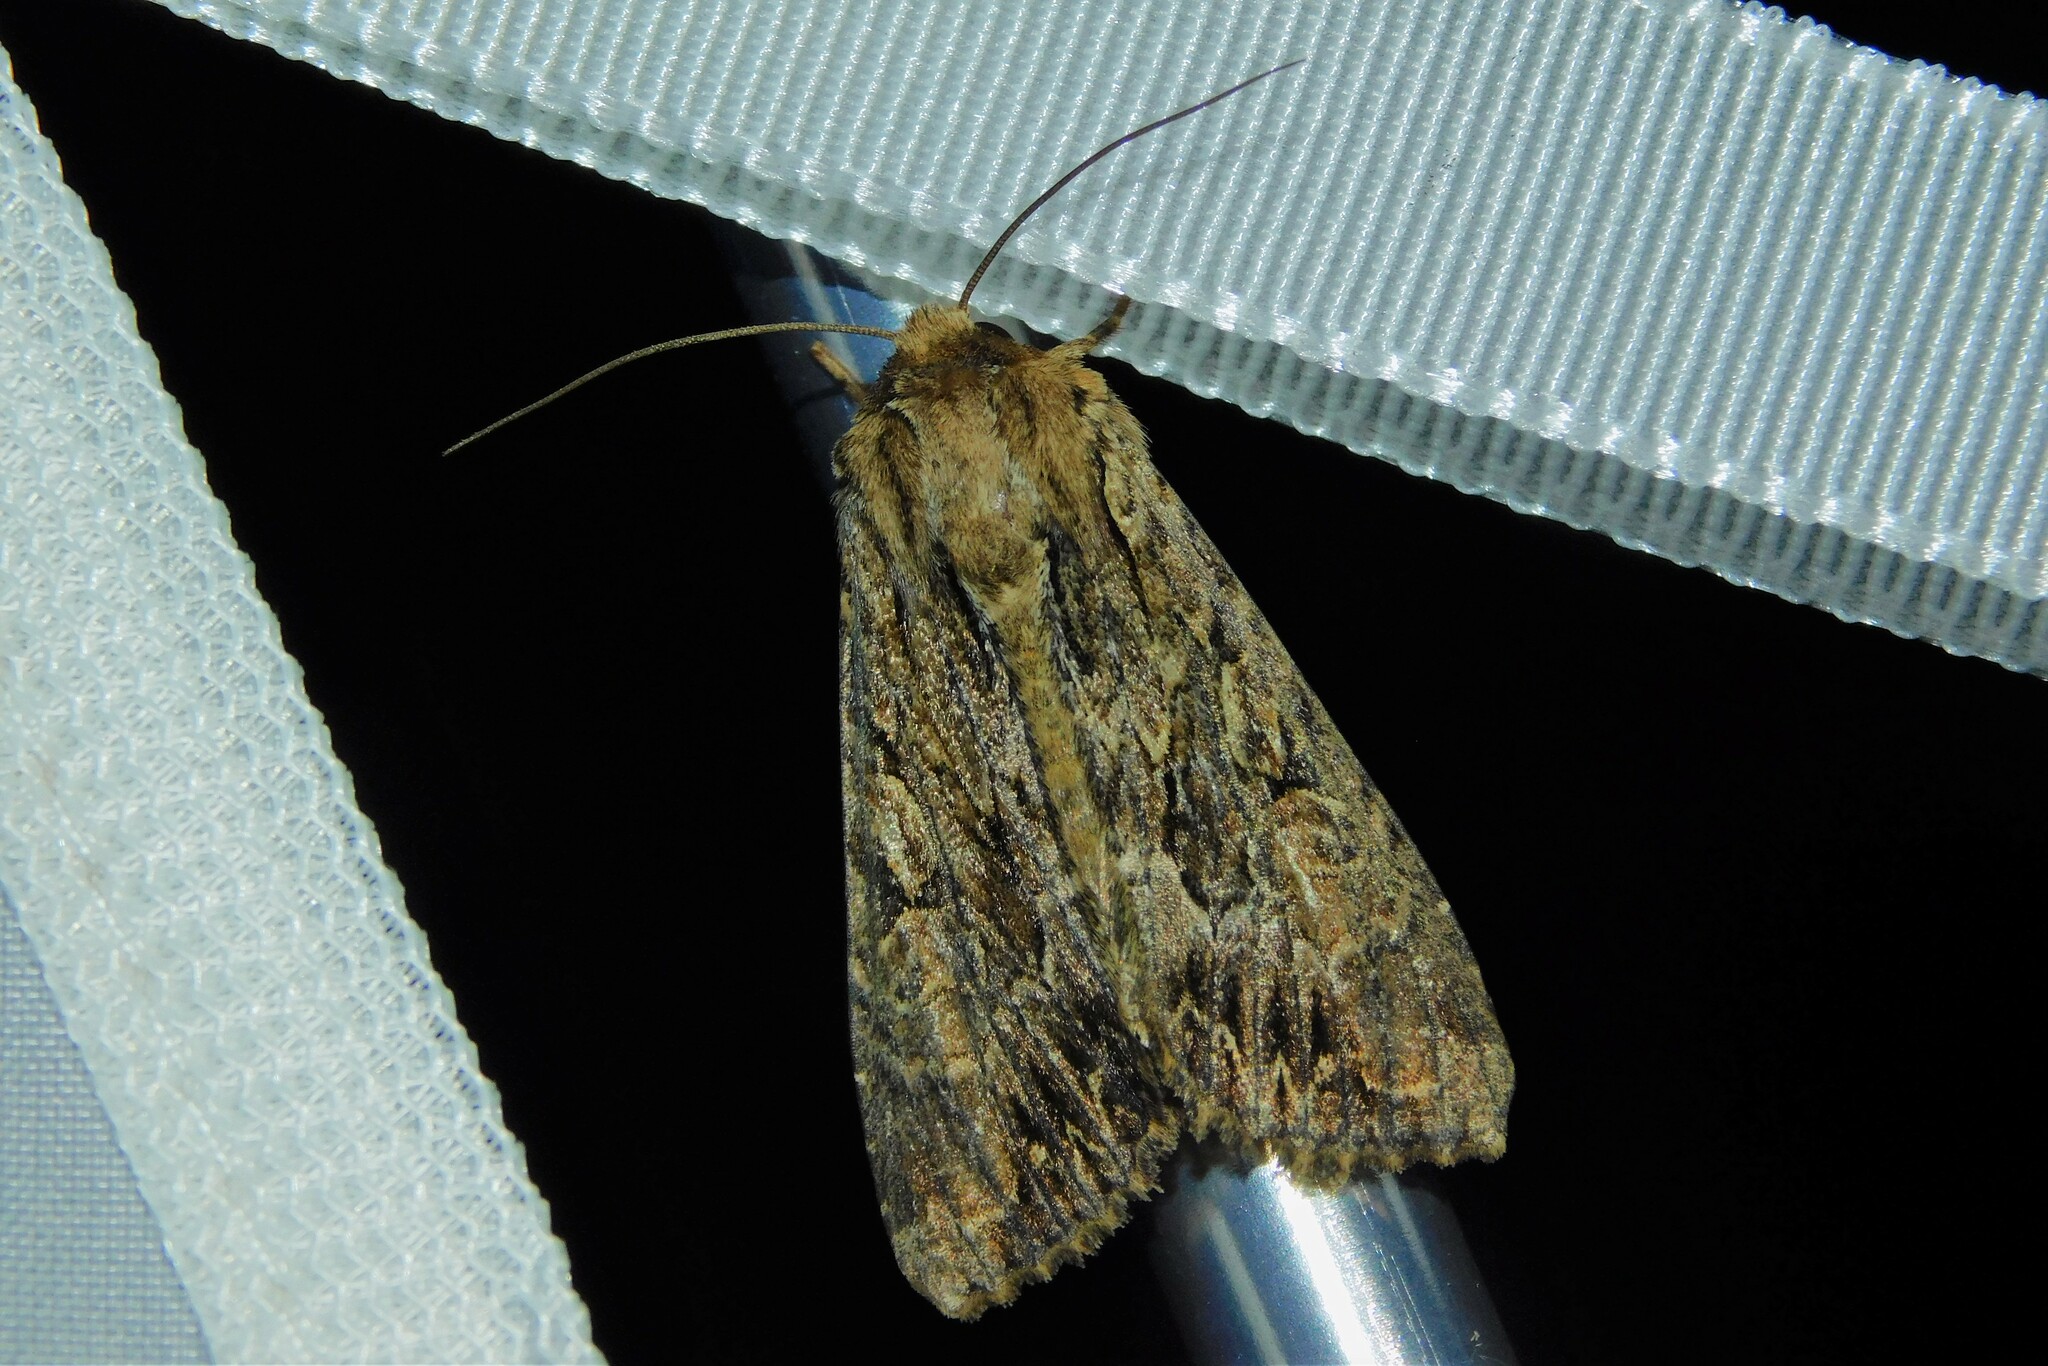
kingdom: Animalia
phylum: Arthropoda
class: Insecta
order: Lepidoptera
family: Noctuidae
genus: Apamea
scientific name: Apamea monoglypha
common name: Dark arches
